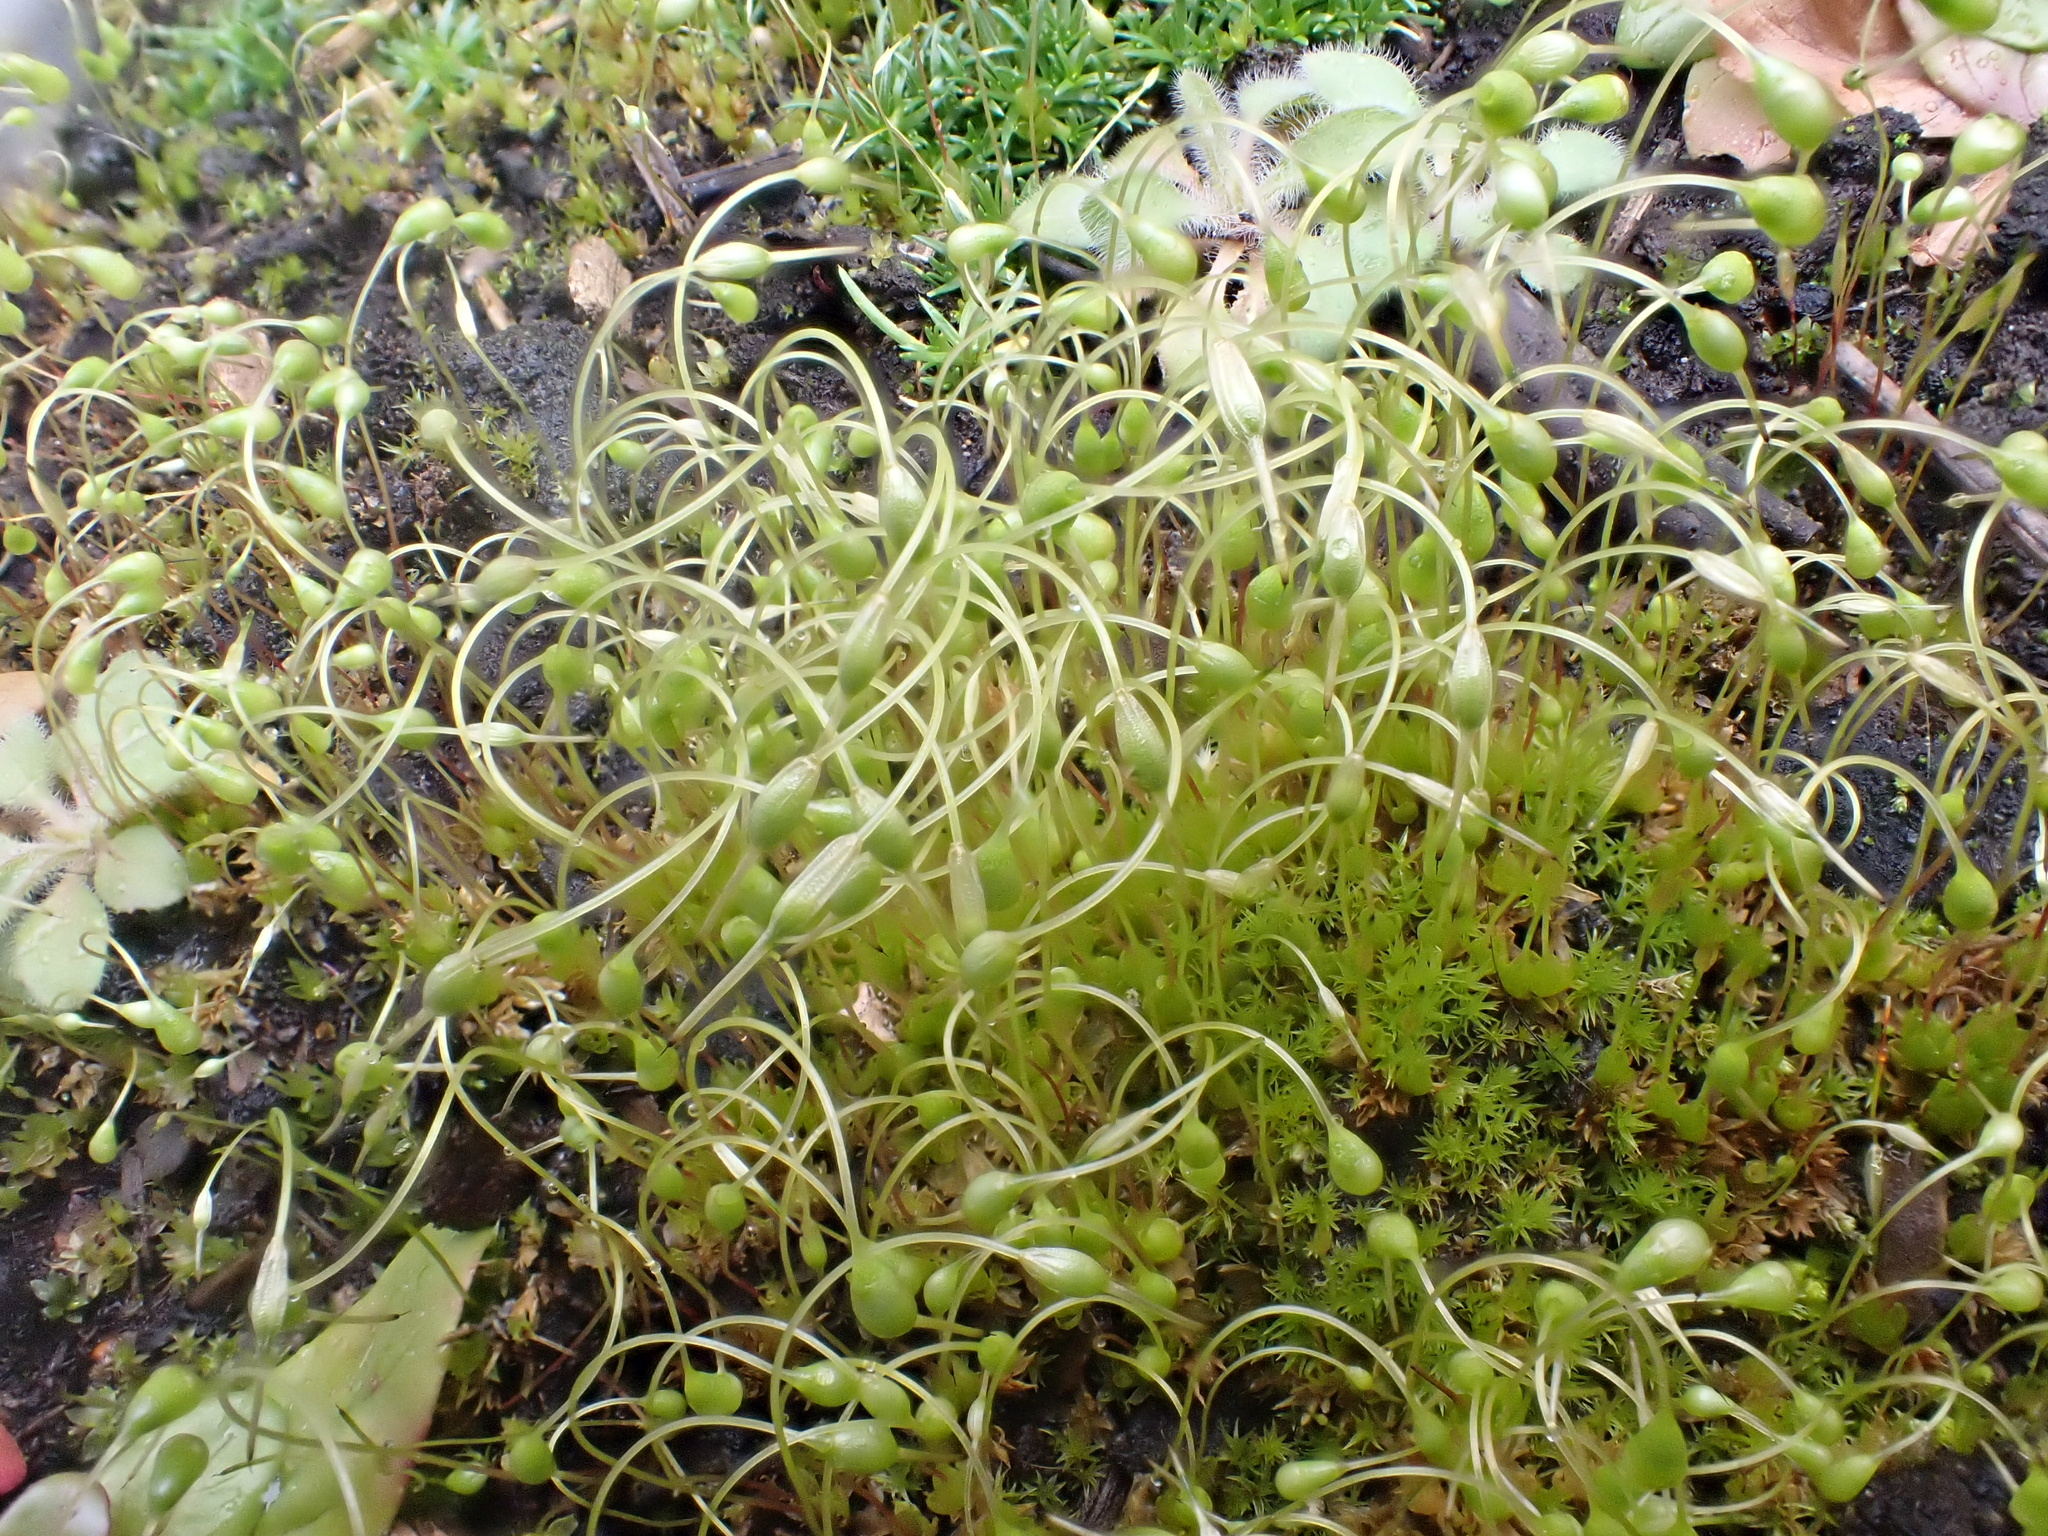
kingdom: Plantae
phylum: Bryophyta
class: Bryopsida
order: Funariales
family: Funariaceae
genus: Funaria
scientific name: Funaria hygrometrica
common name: Common cord moss
